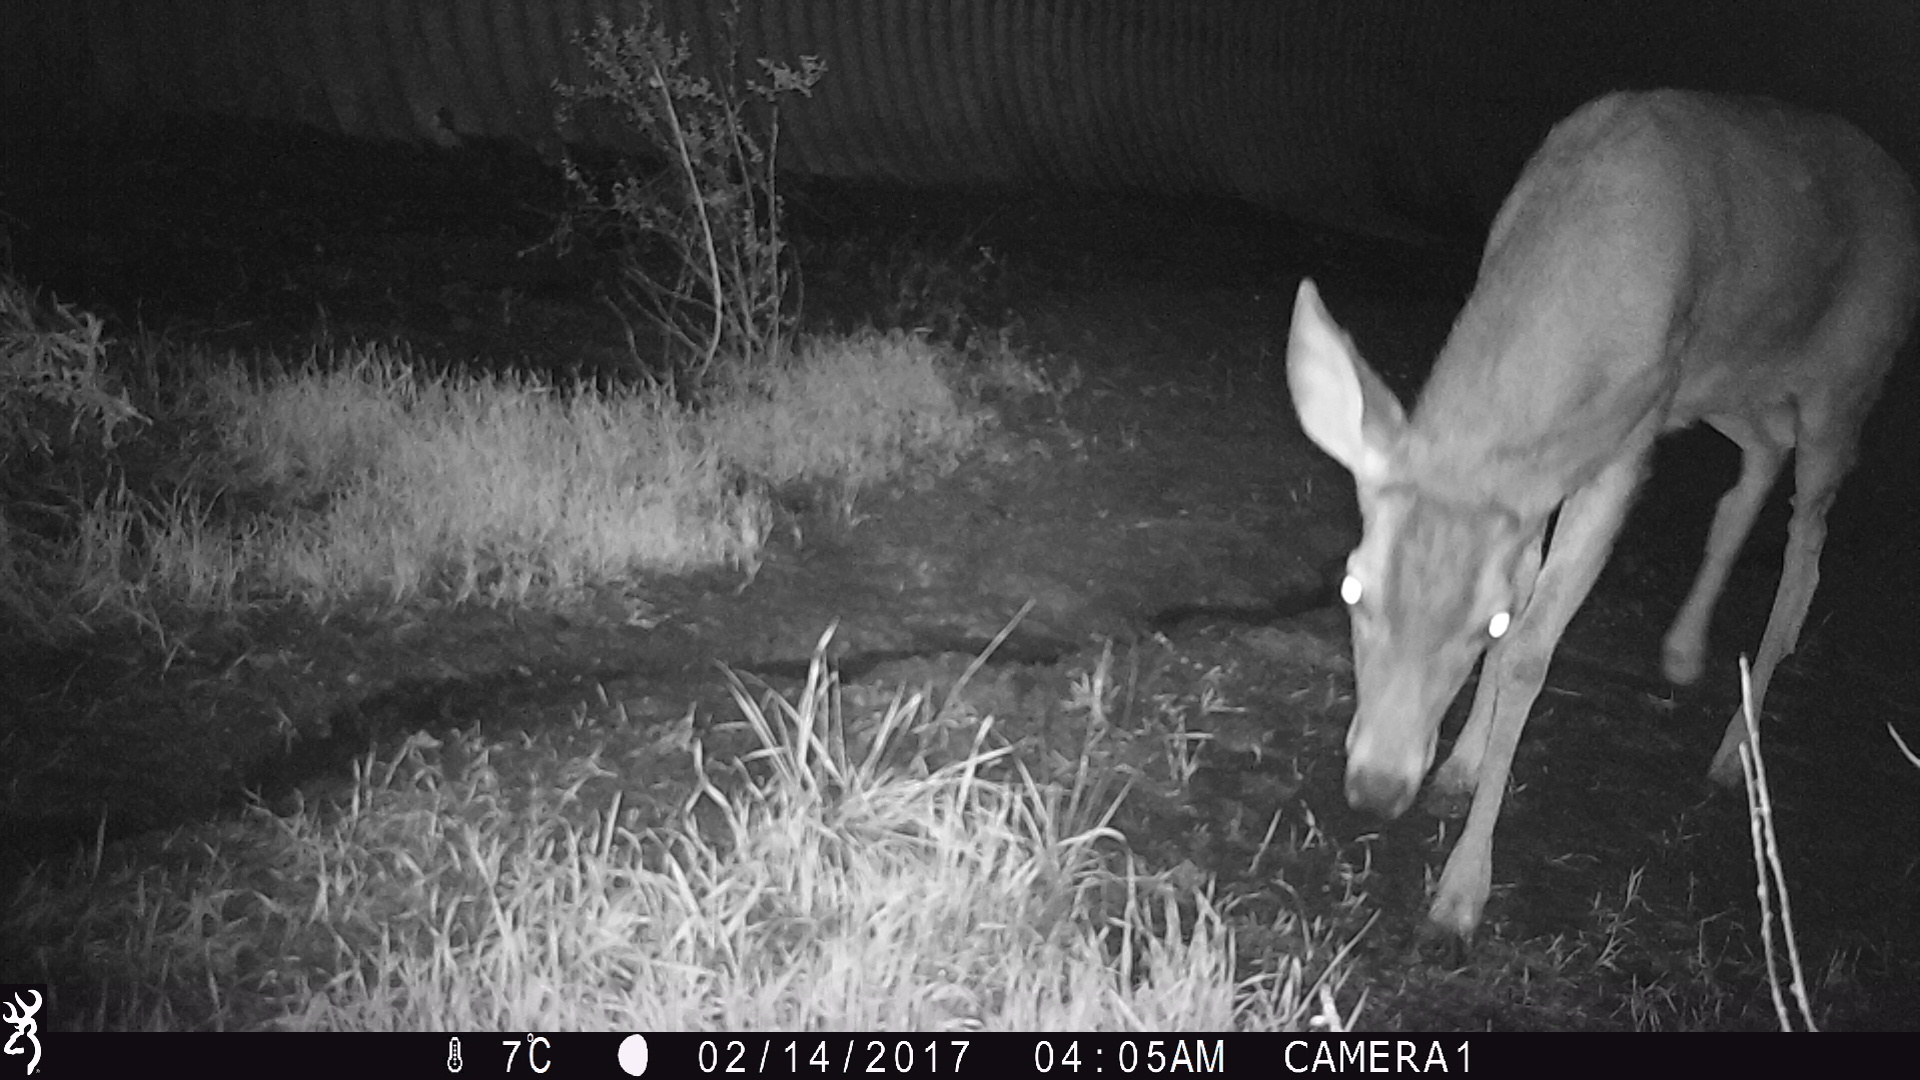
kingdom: Animalia
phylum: Chordata
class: Mammalia
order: Artiodactyla
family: Cervidae
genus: Odocoileus
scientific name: Odocoileus hemionus
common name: Mule deer
